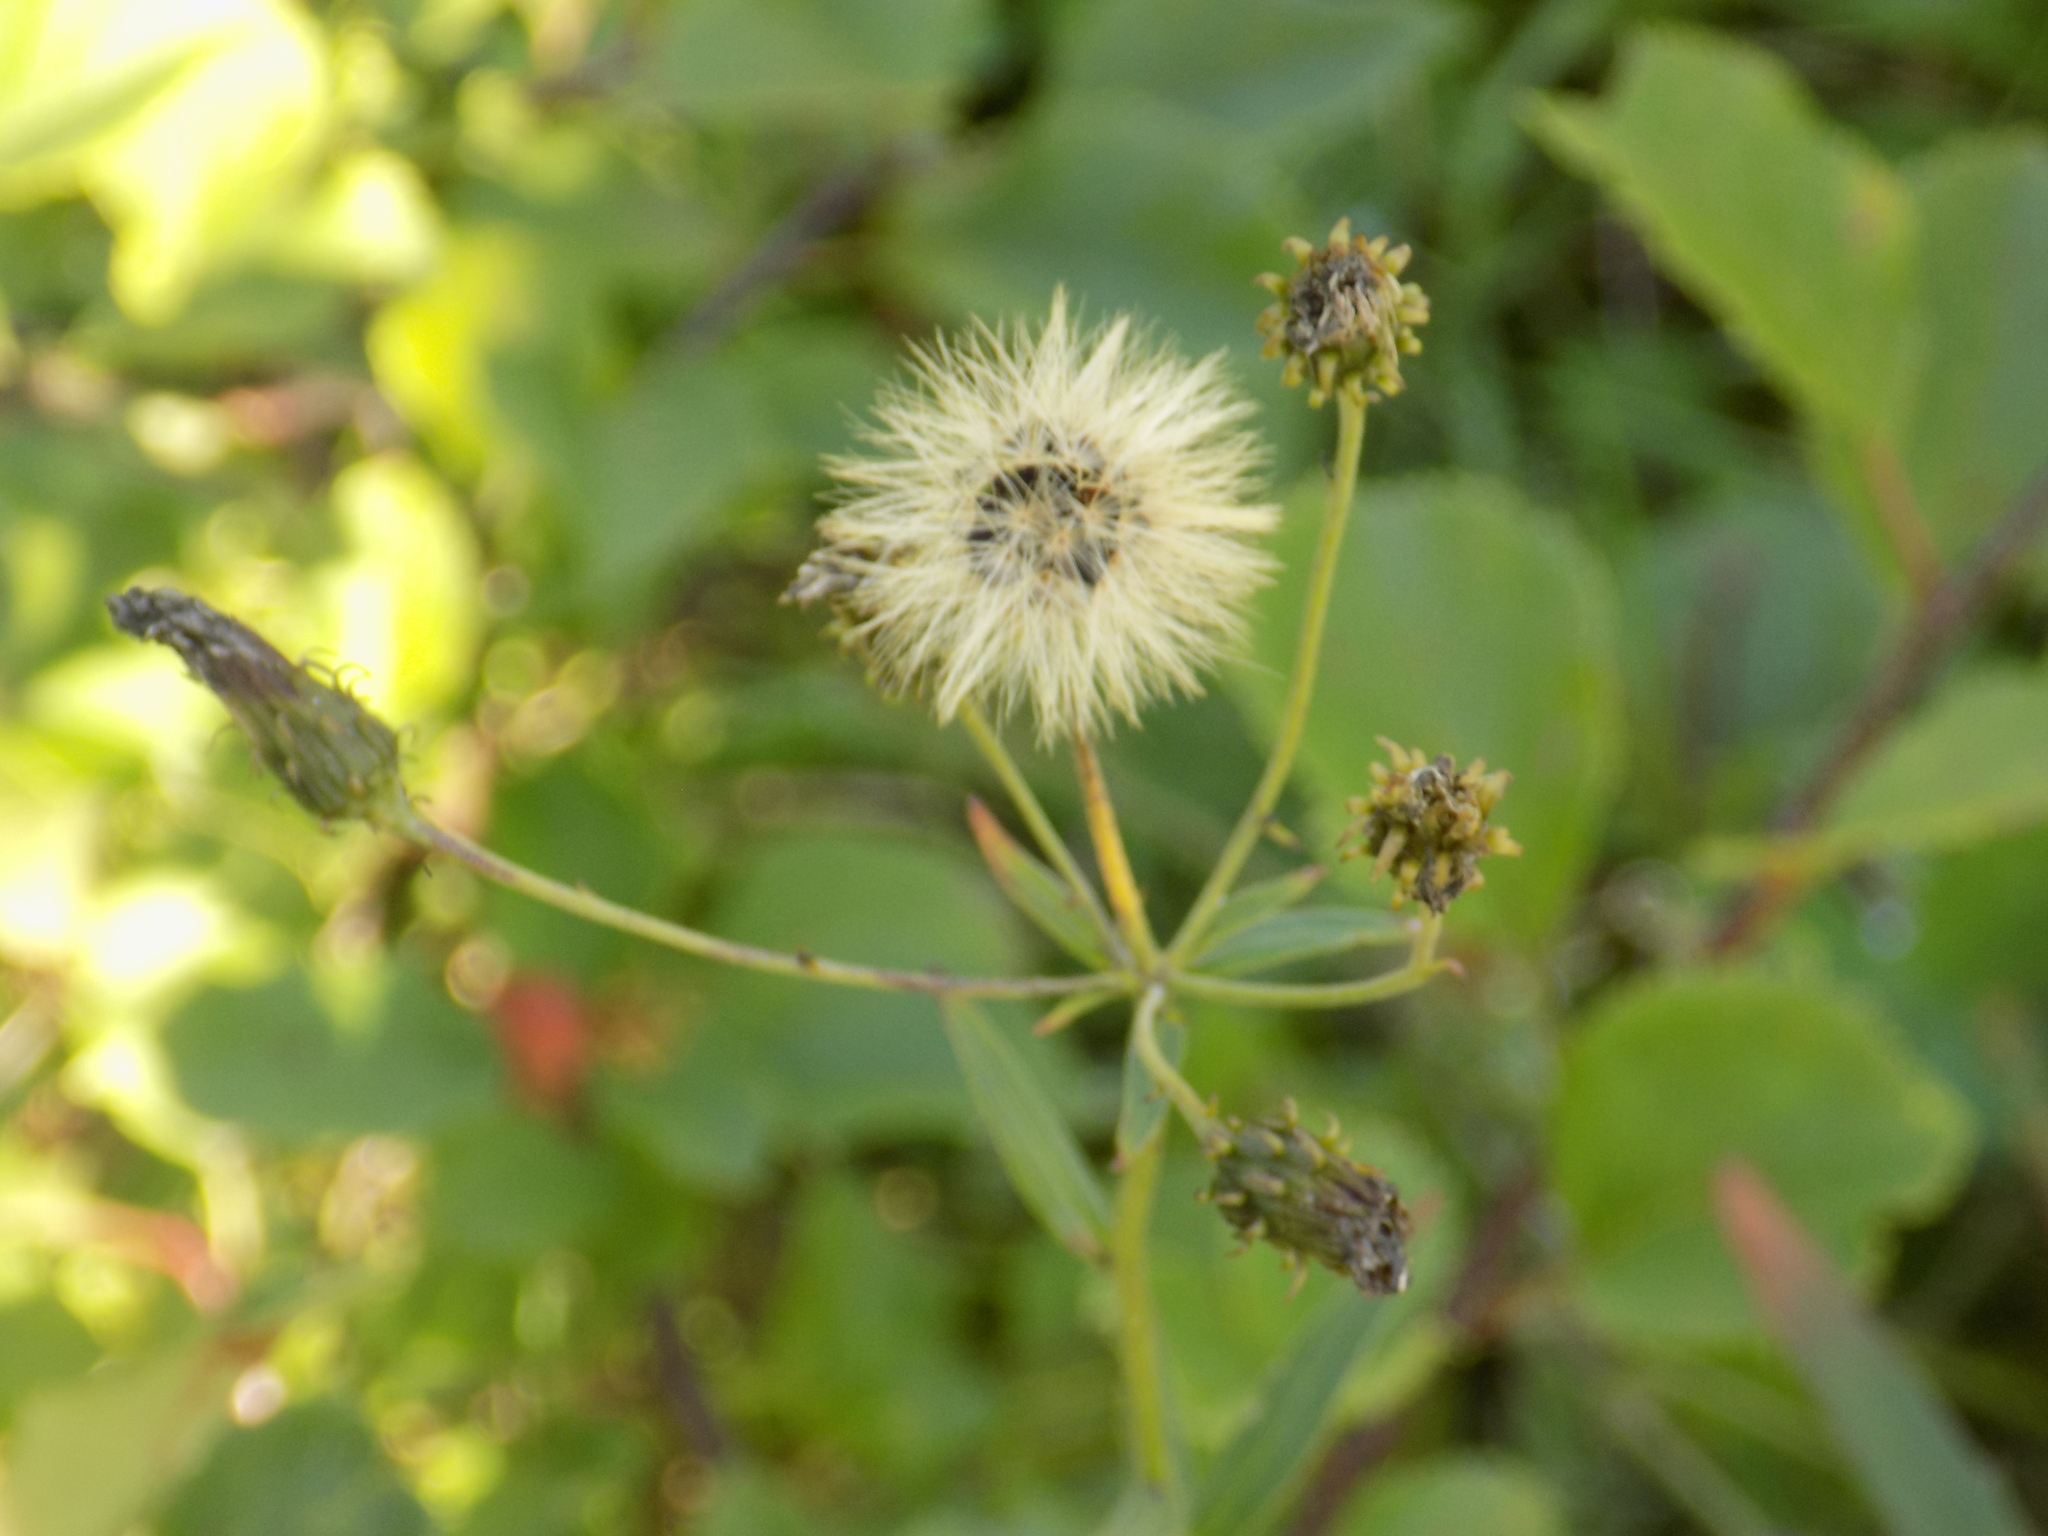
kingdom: Plantae
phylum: Tracheophyta
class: Magnoliopsida
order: Asterales
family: Asteraceae
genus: Hieracium
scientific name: Hieracium umbellatum
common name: Northern hawkweed
